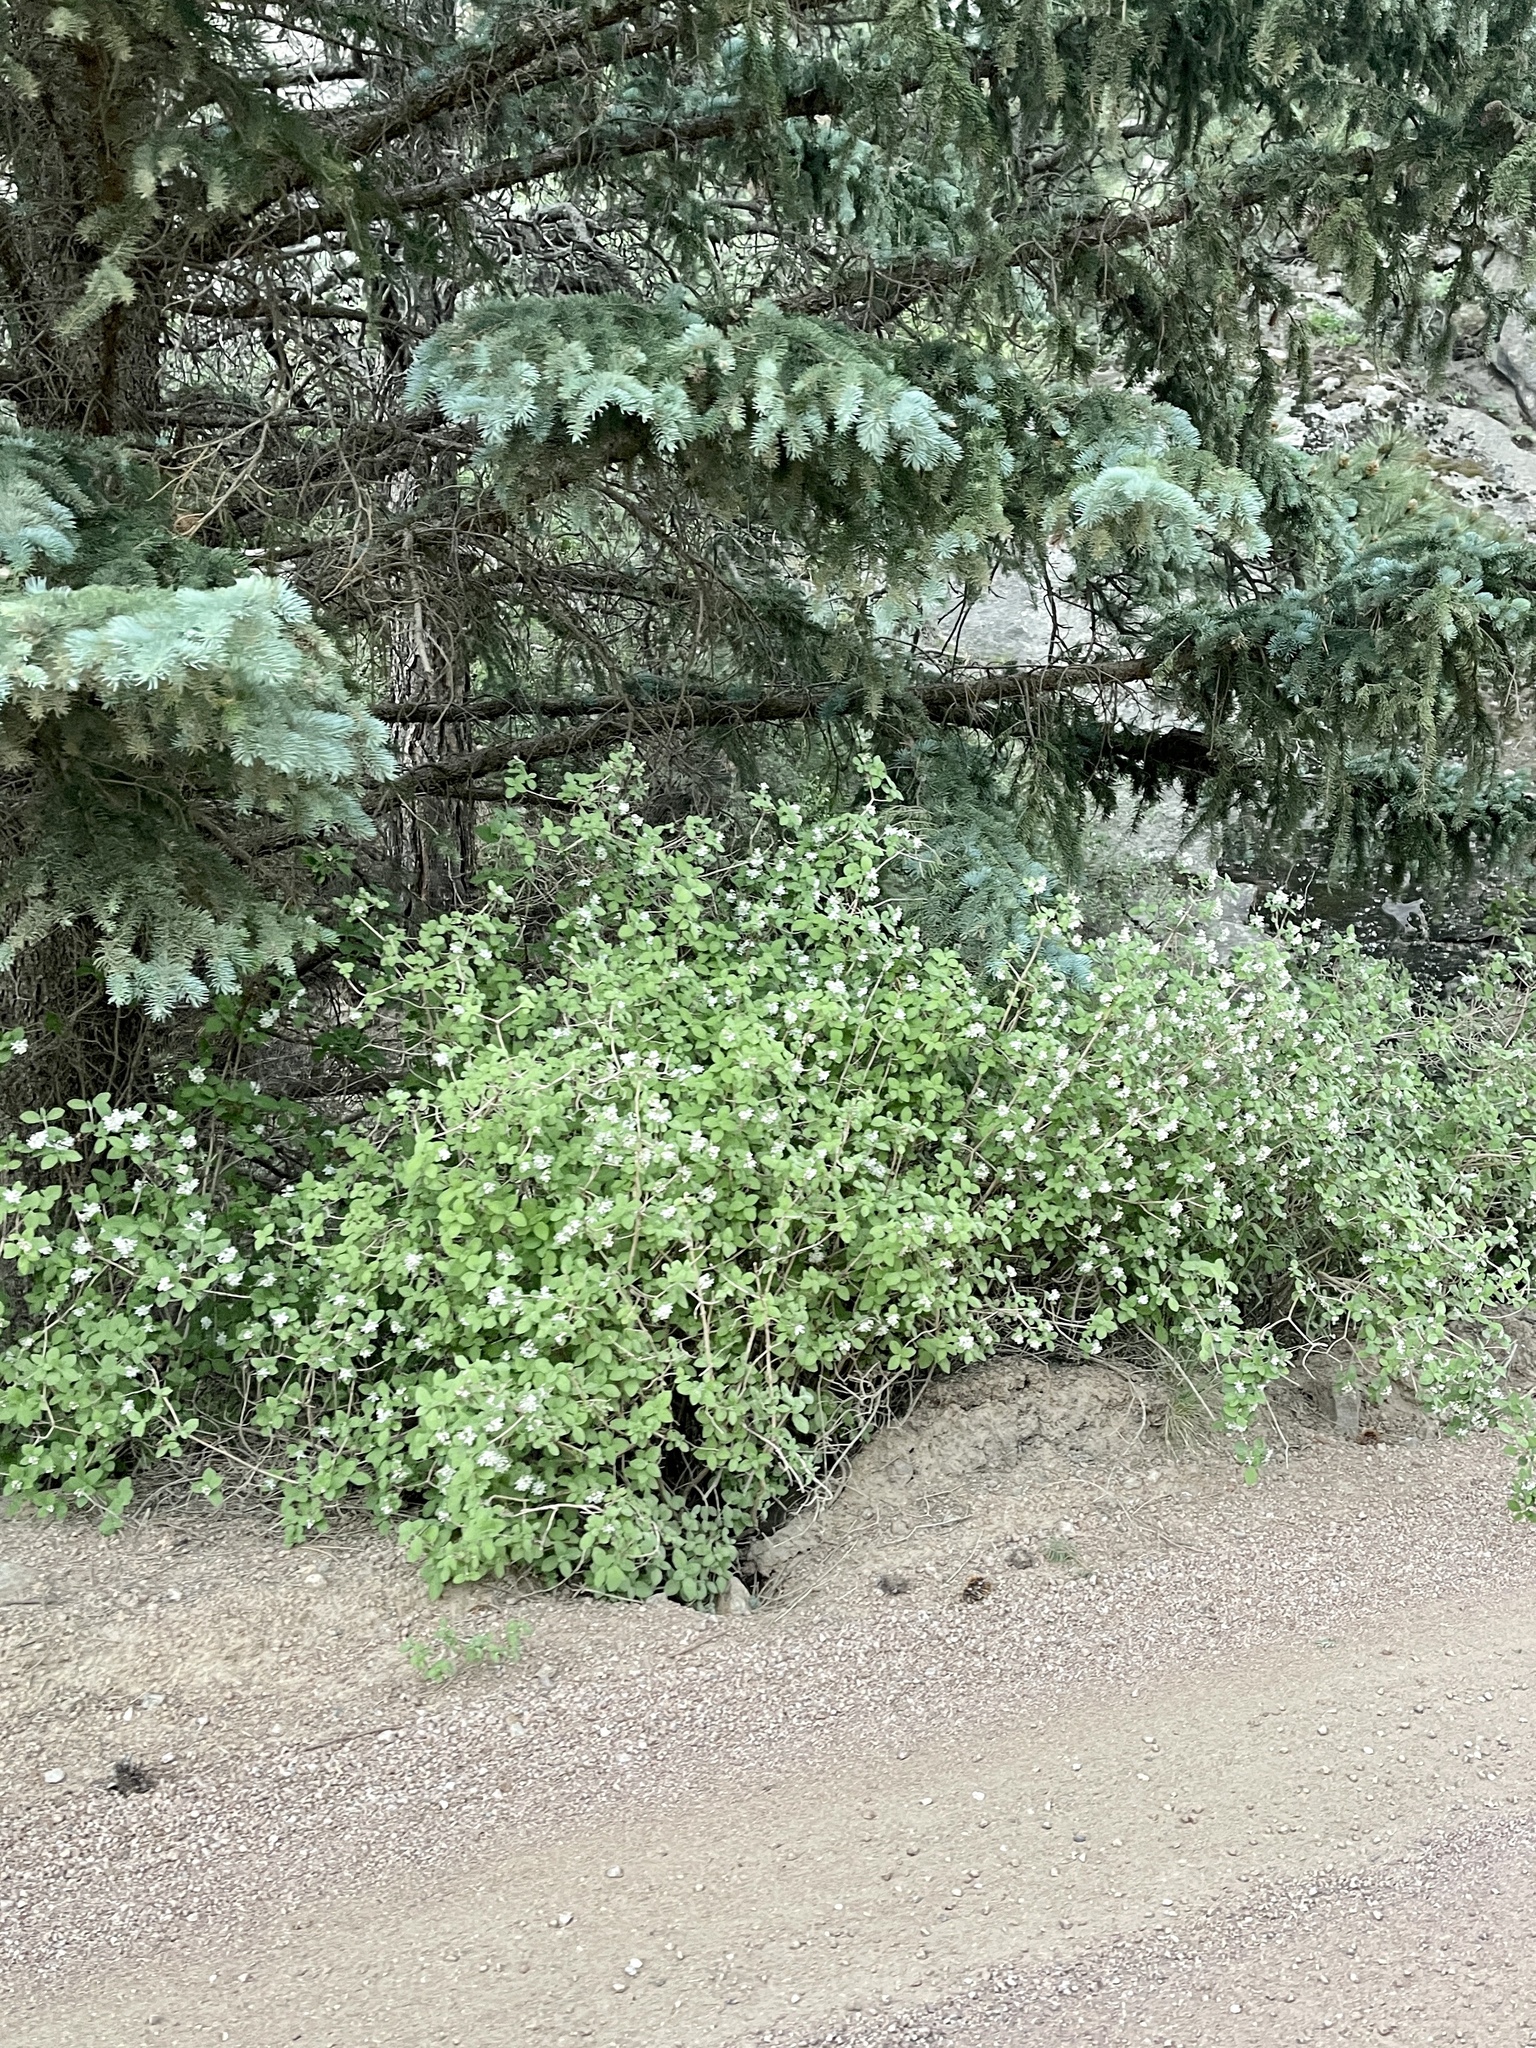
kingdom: Plantae
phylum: Tracheophyta
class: Magnoliopsida
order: Cornales
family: Hydrangeaceae
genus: Jamesia
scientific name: Jamesia americana
